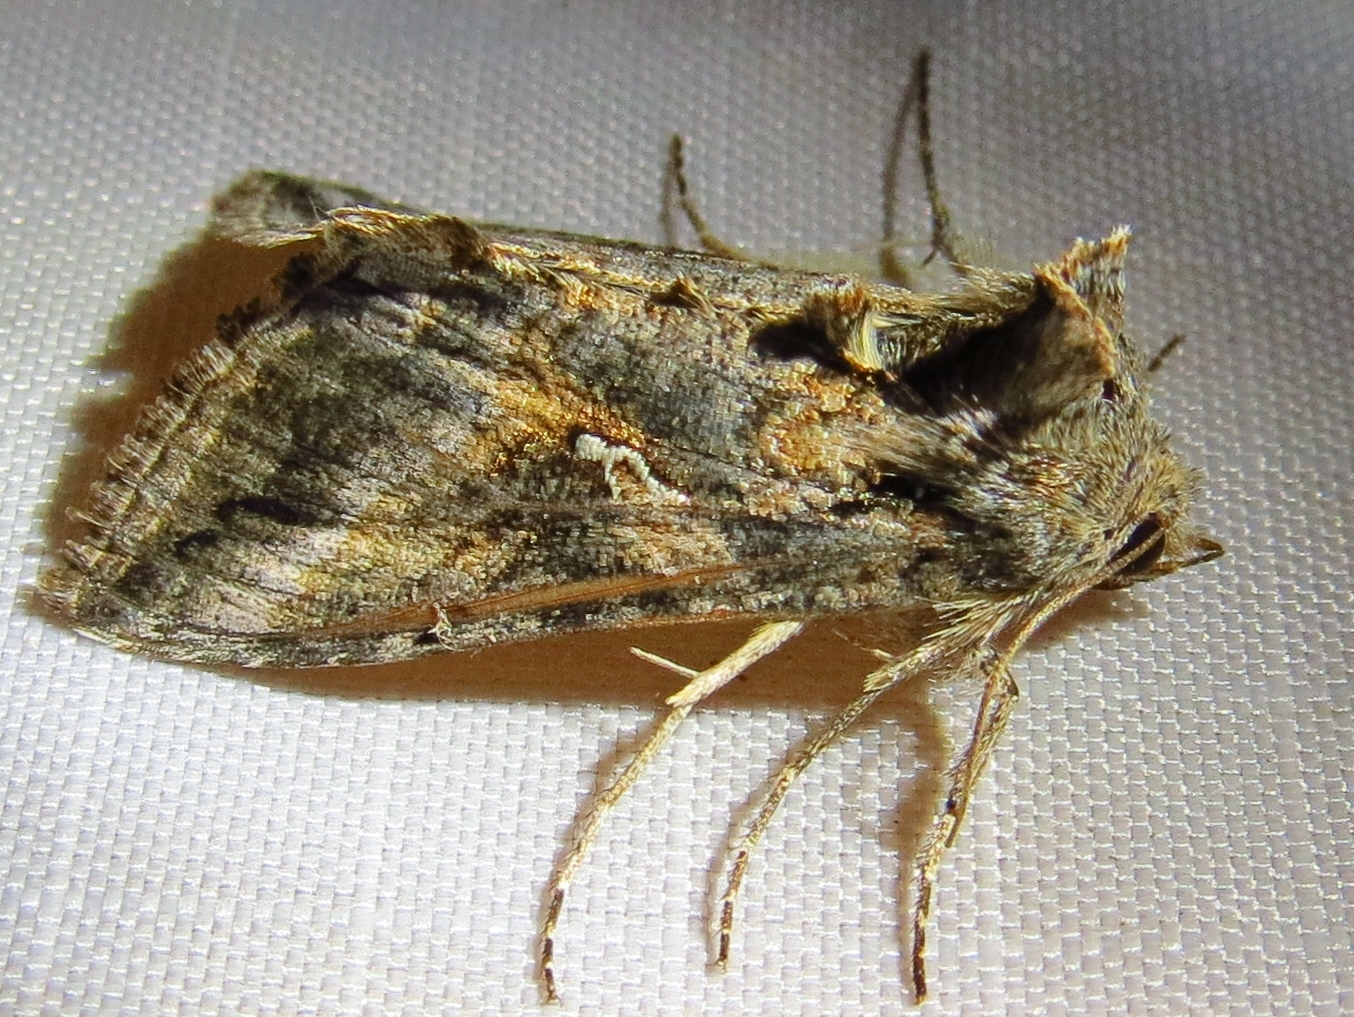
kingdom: Animalia
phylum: Arthropoda
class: Insecta
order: Lepidoptera
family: Noctuidae
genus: Rachiplusia
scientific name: Rachiplusia ou
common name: Gray looper moth
